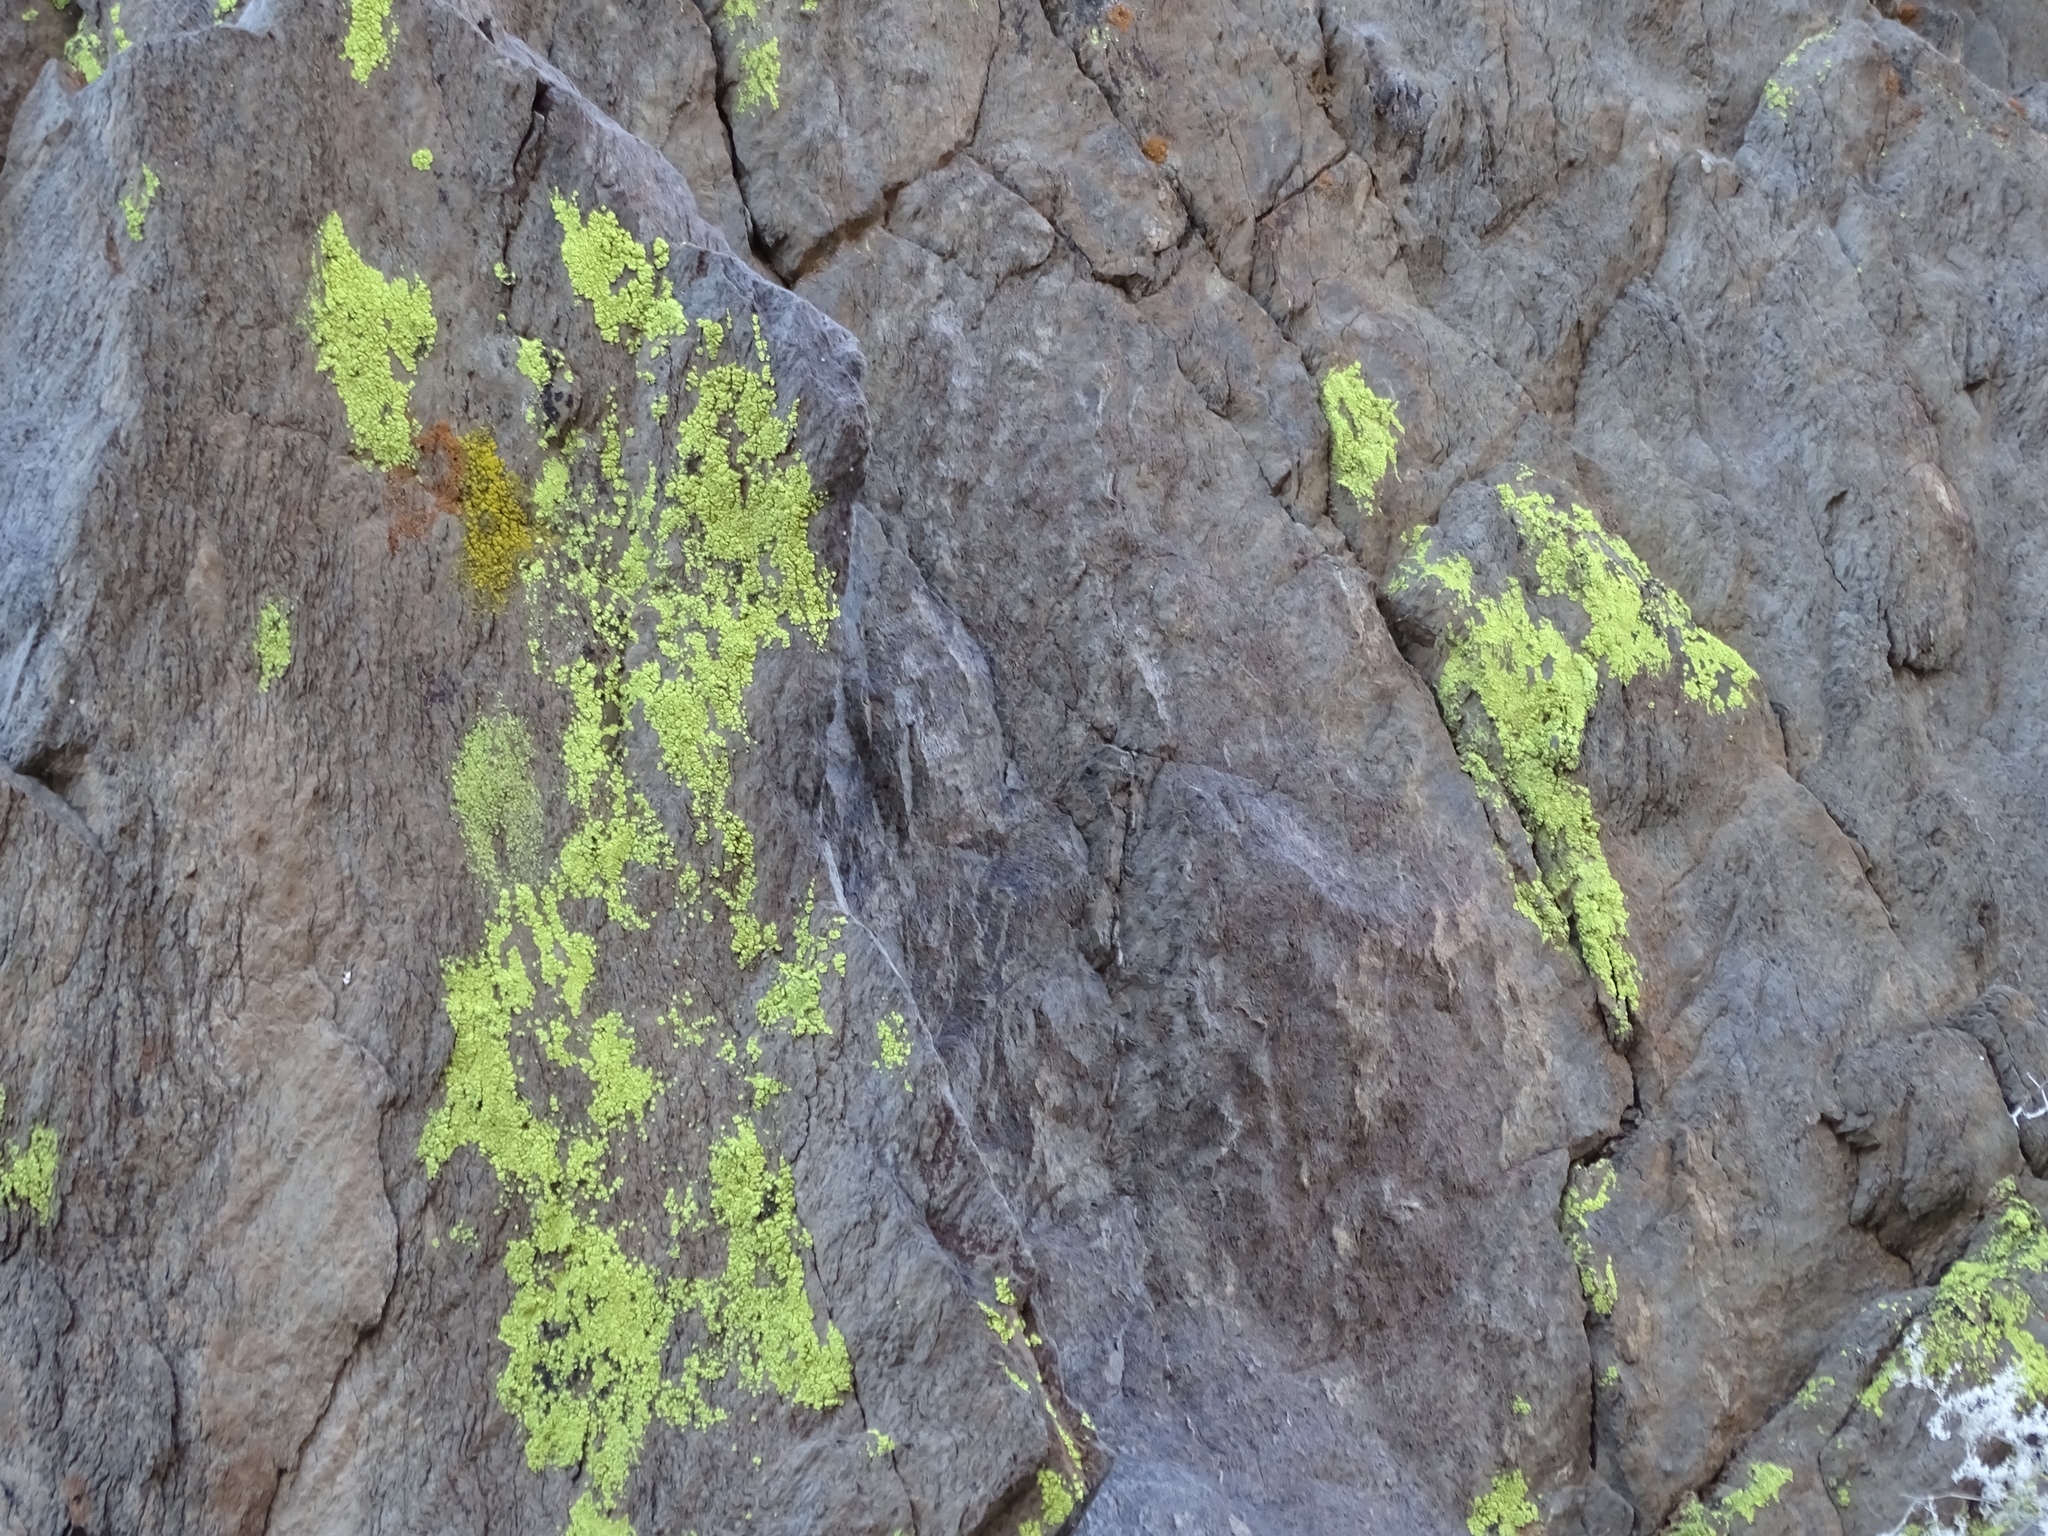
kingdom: Fungi
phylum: Ascomycota
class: Lecanoromycetes
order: Acarosporales
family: Acarosporaceae
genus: Acarospora
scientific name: Acarospora socialis
